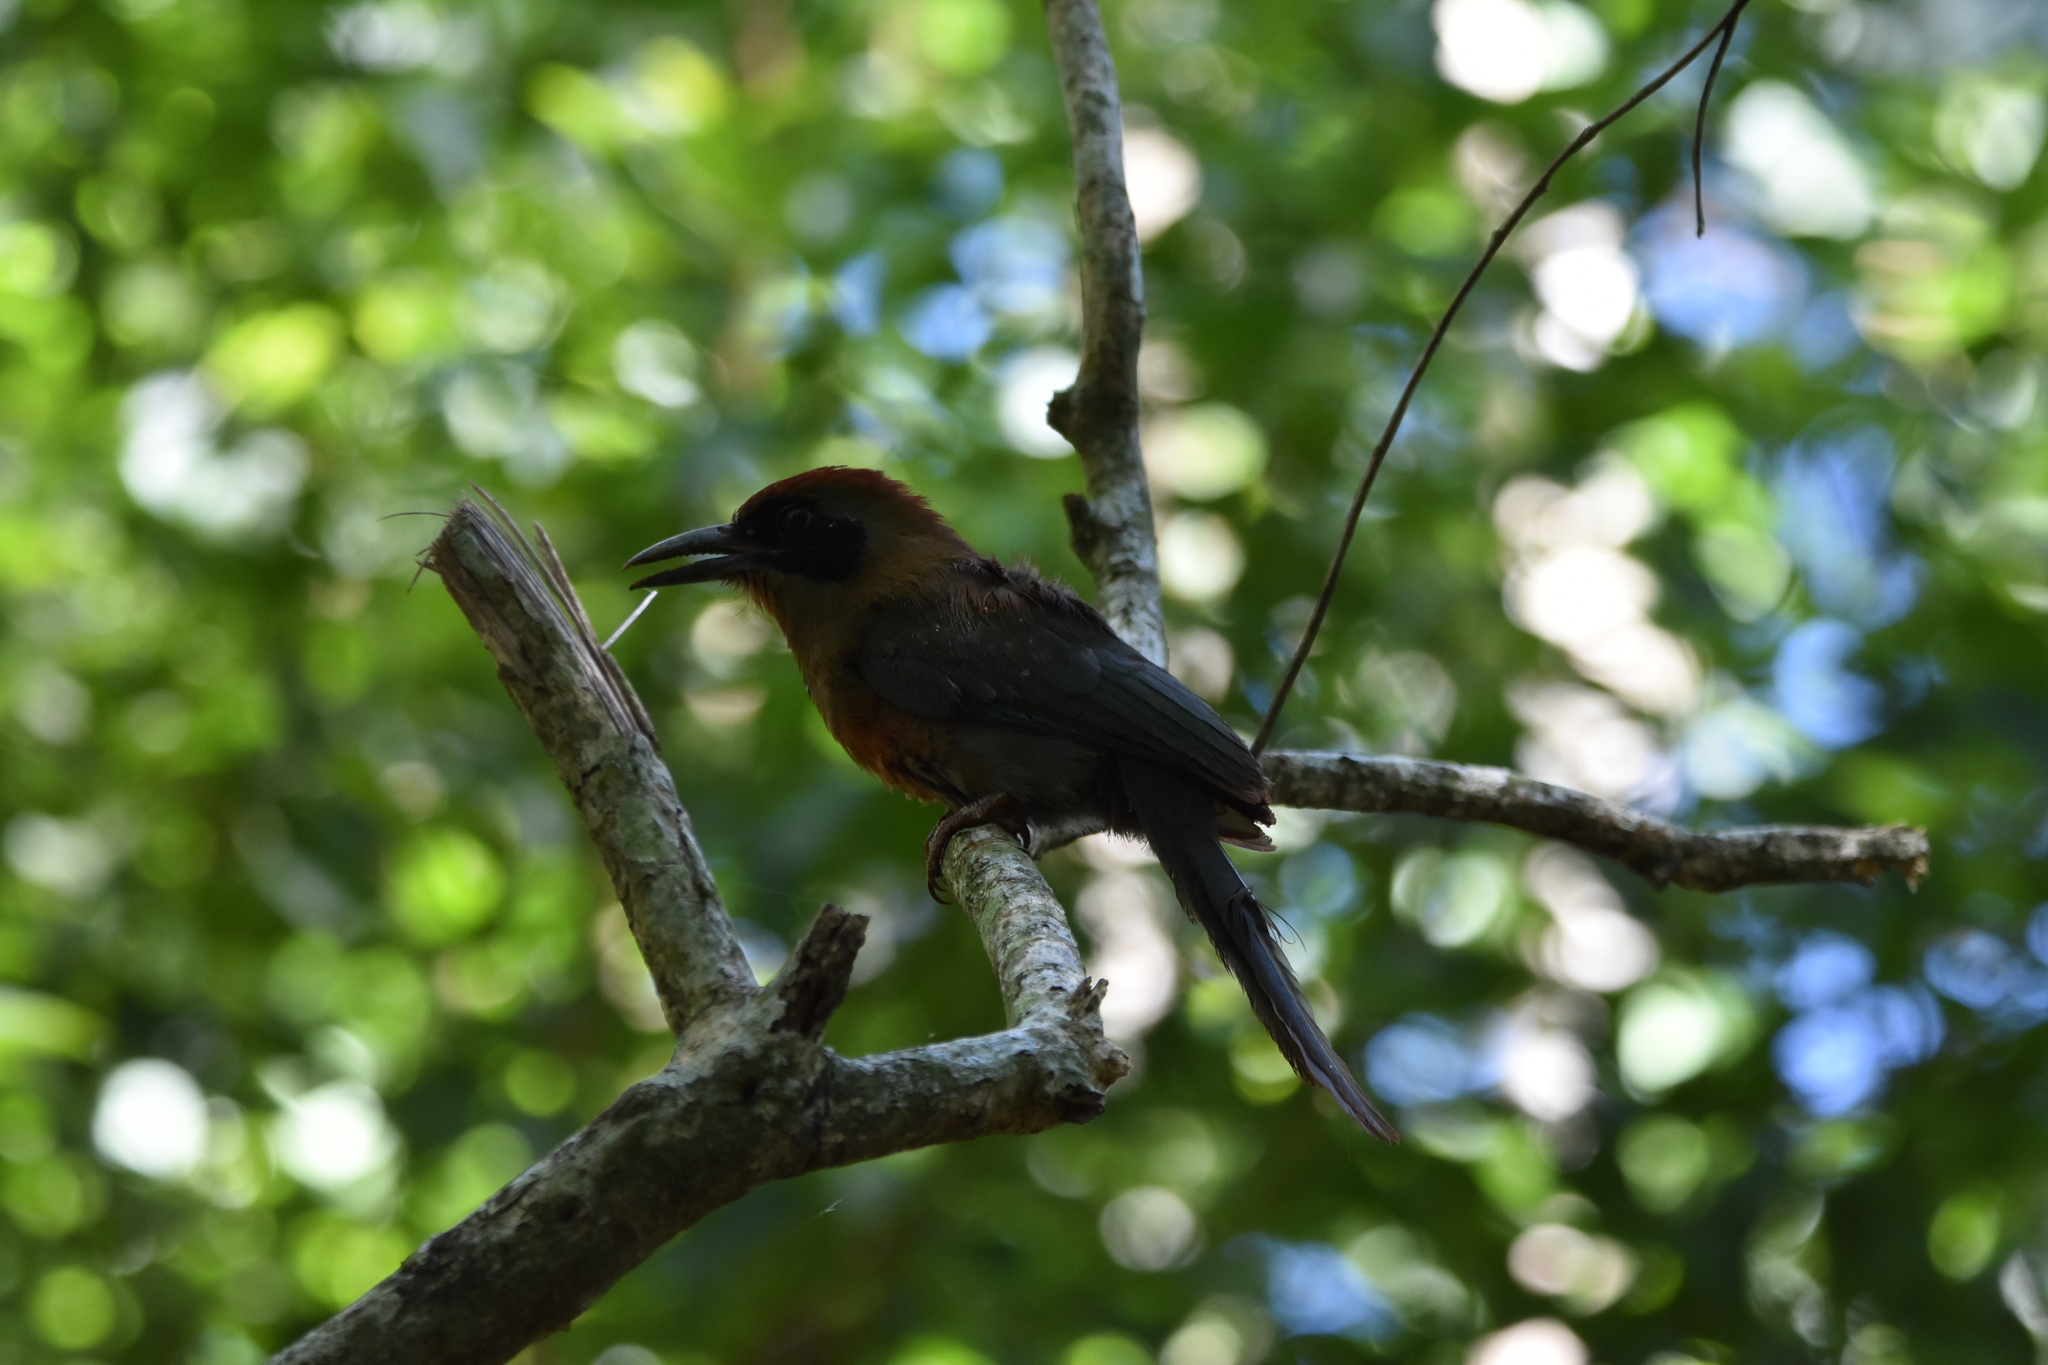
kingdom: Animalia
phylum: Chordata
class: Aves
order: Coraciiformes
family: Momotidae
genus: Baryphthengus
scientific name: Baryphthengus ruficapillus
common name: Rufous-capped motmot
